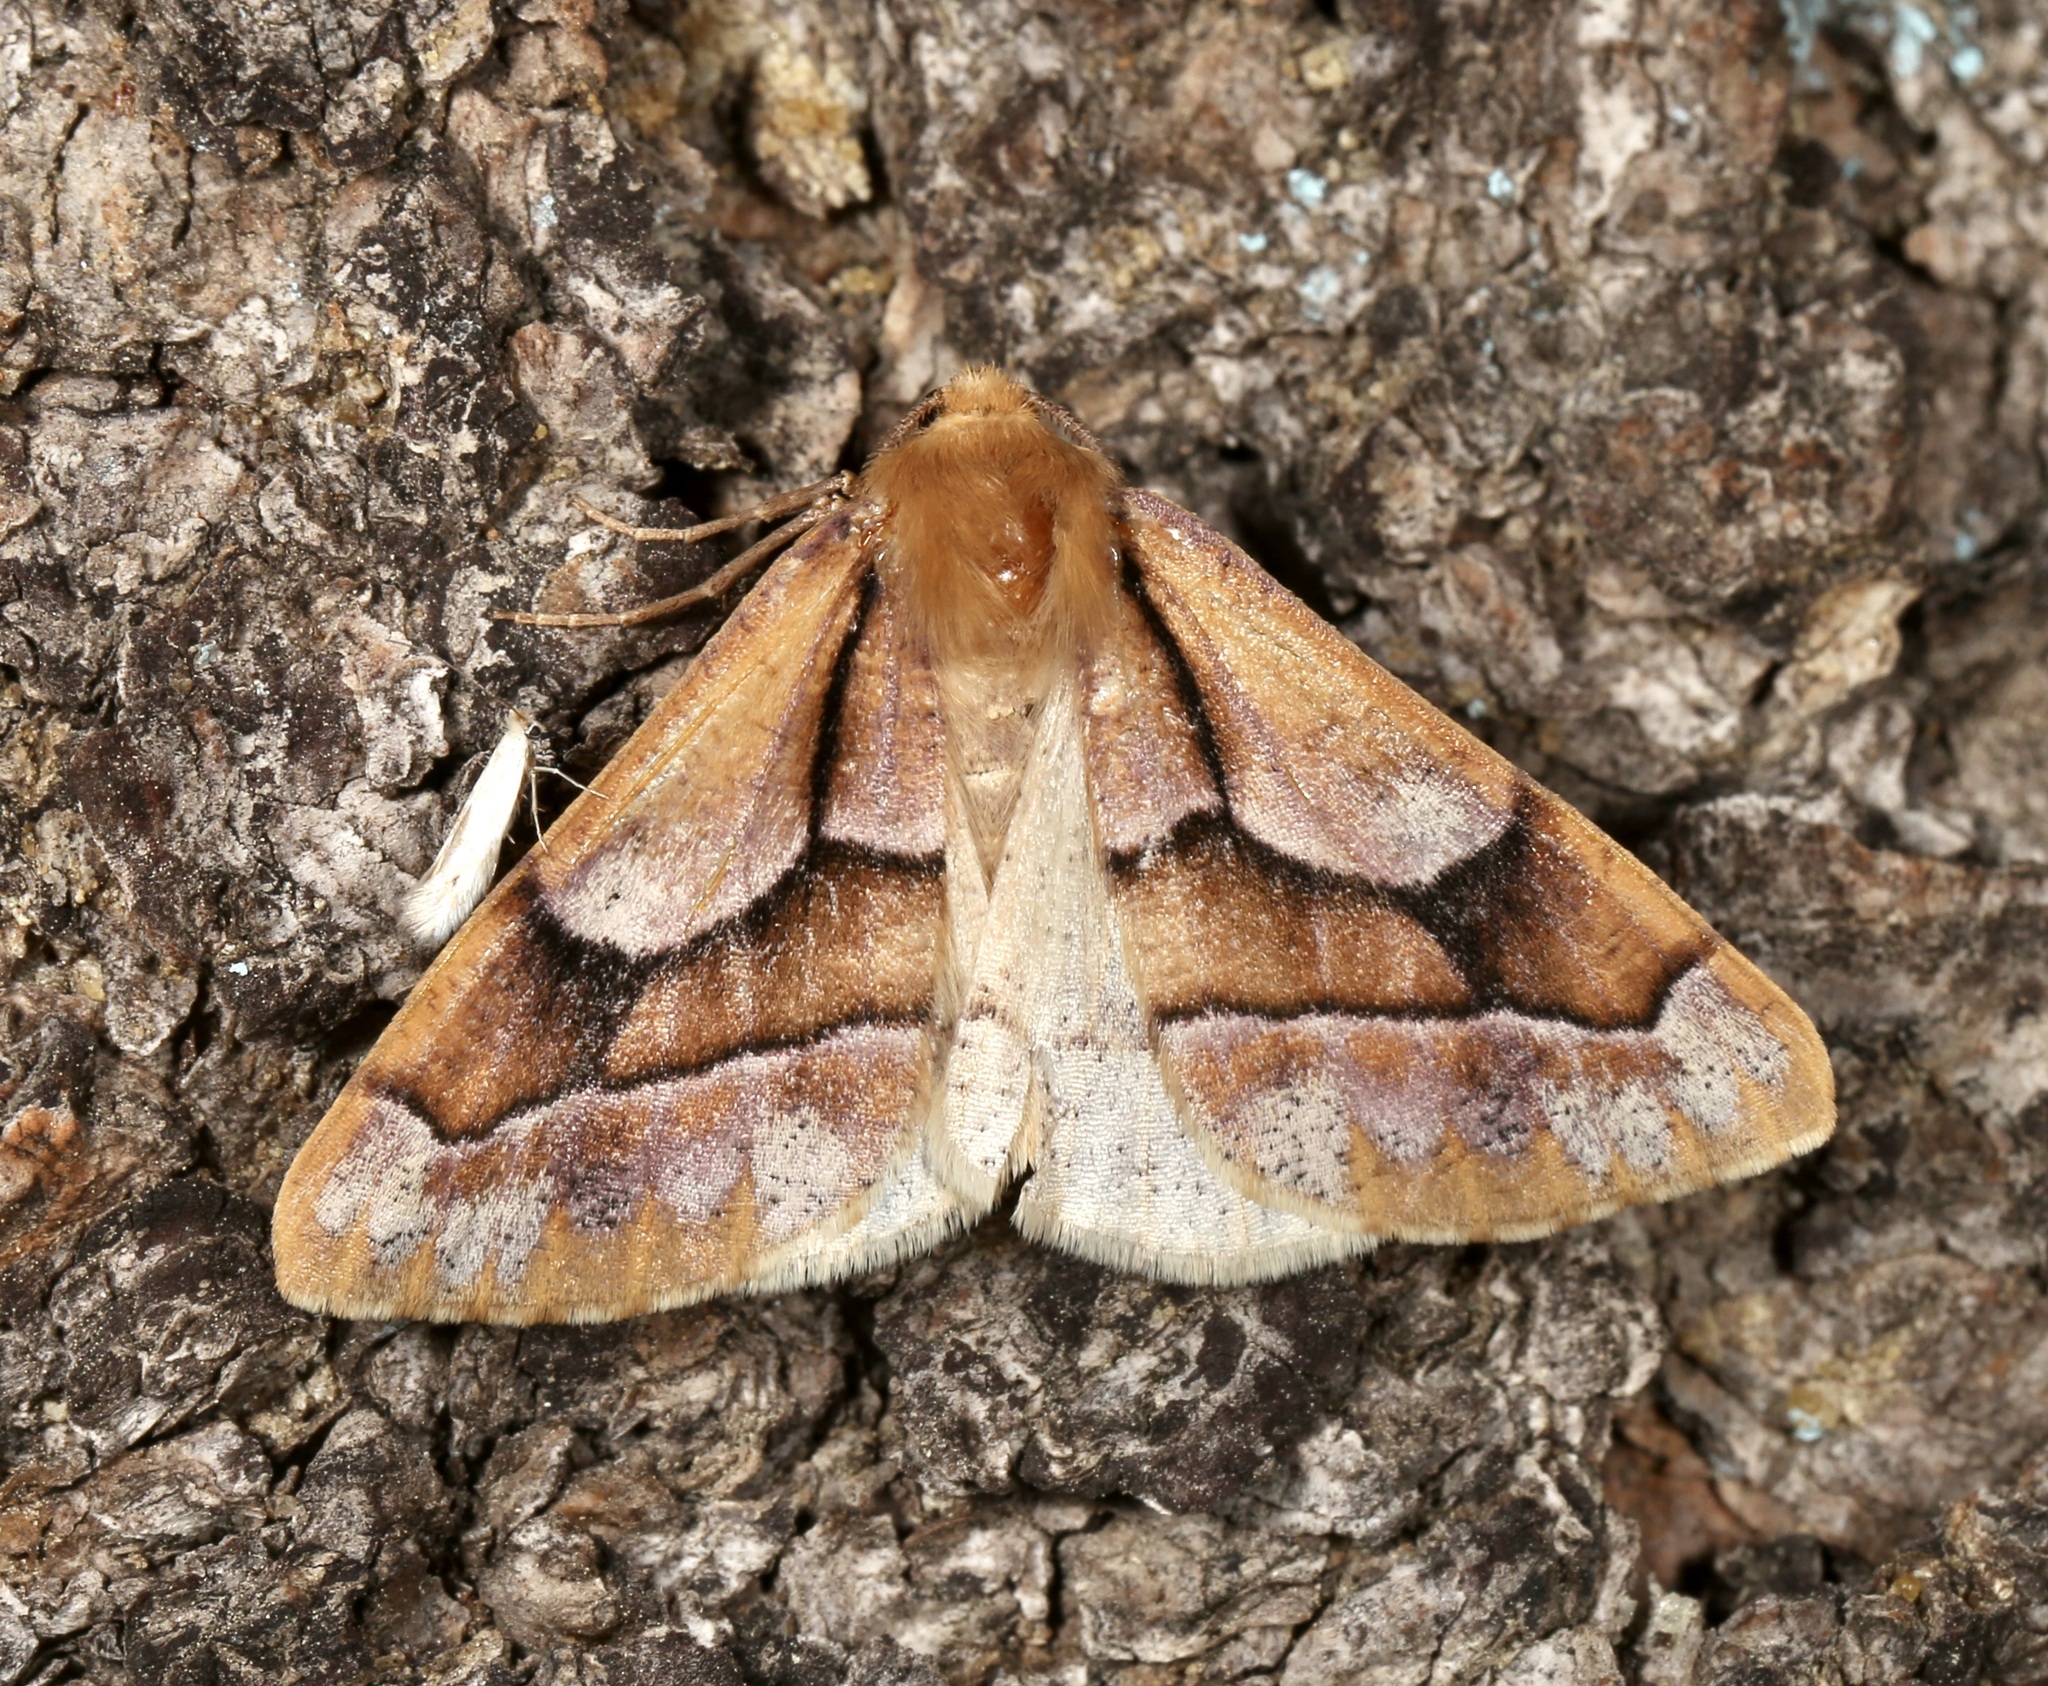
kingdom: Animalia
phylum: Arthropoda
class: Insecta
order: Lepidoptera
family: Geometridae
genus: Snowia
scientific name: Snowia montanaria
